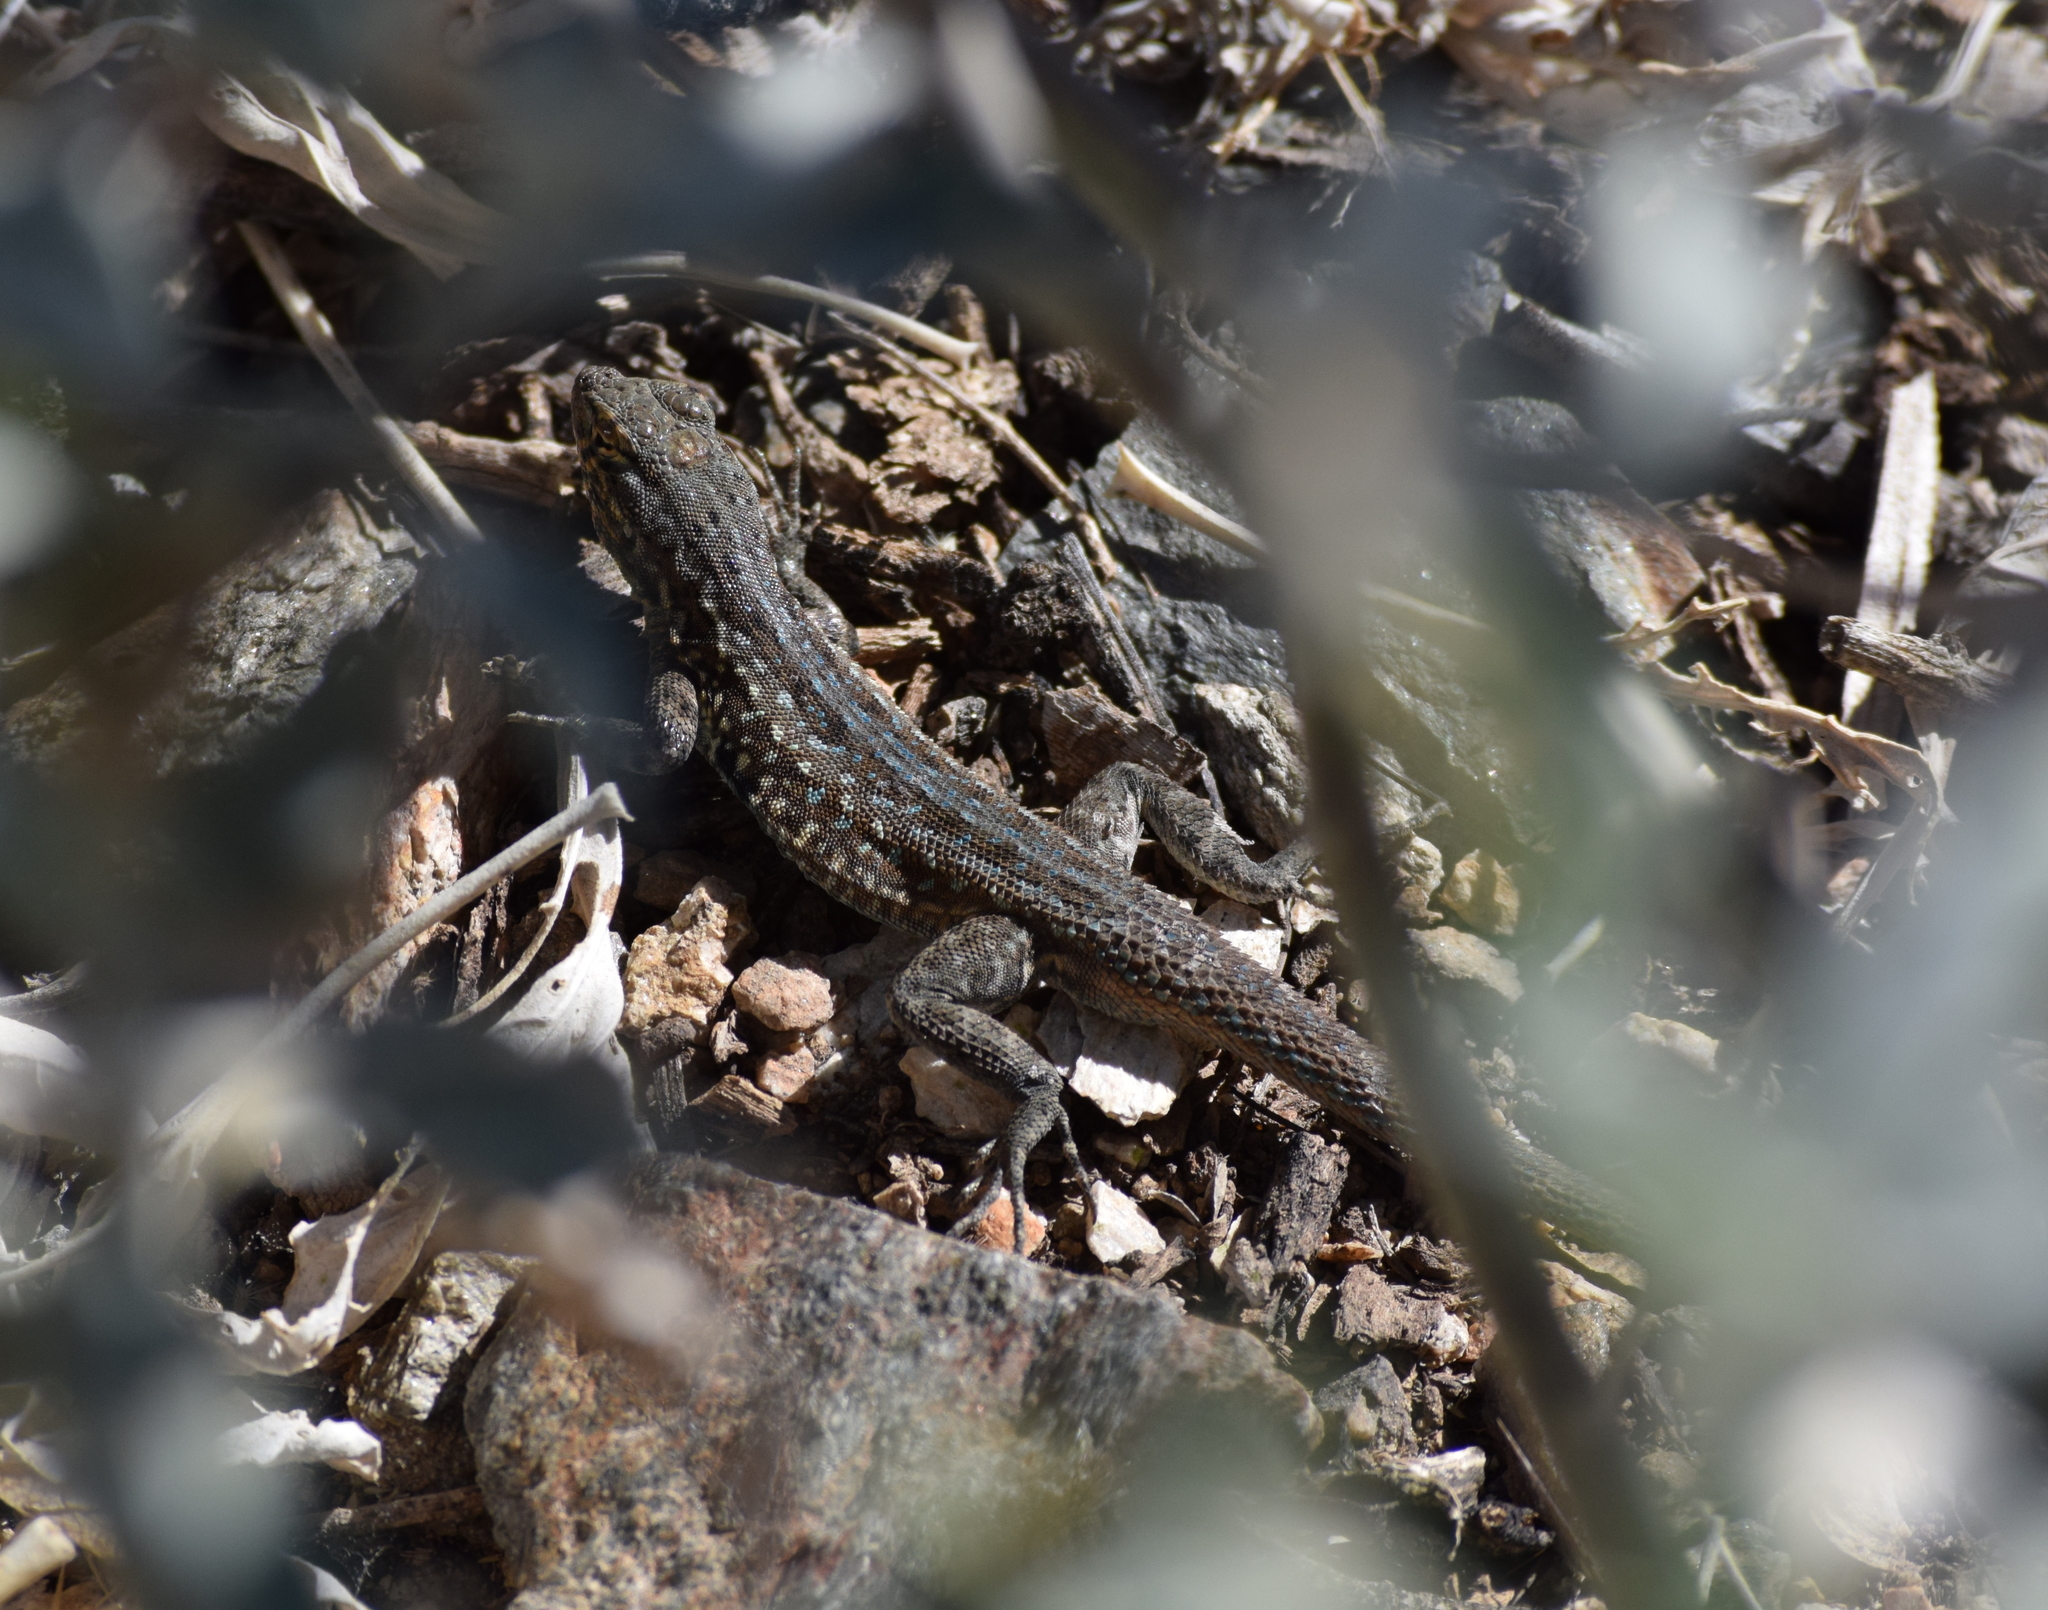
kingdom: Animalia
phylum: Chordata
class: Squamata
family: Phrynosomatidae
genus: Uta
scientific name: Uta stansburiana
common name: Side-blotched lizard
